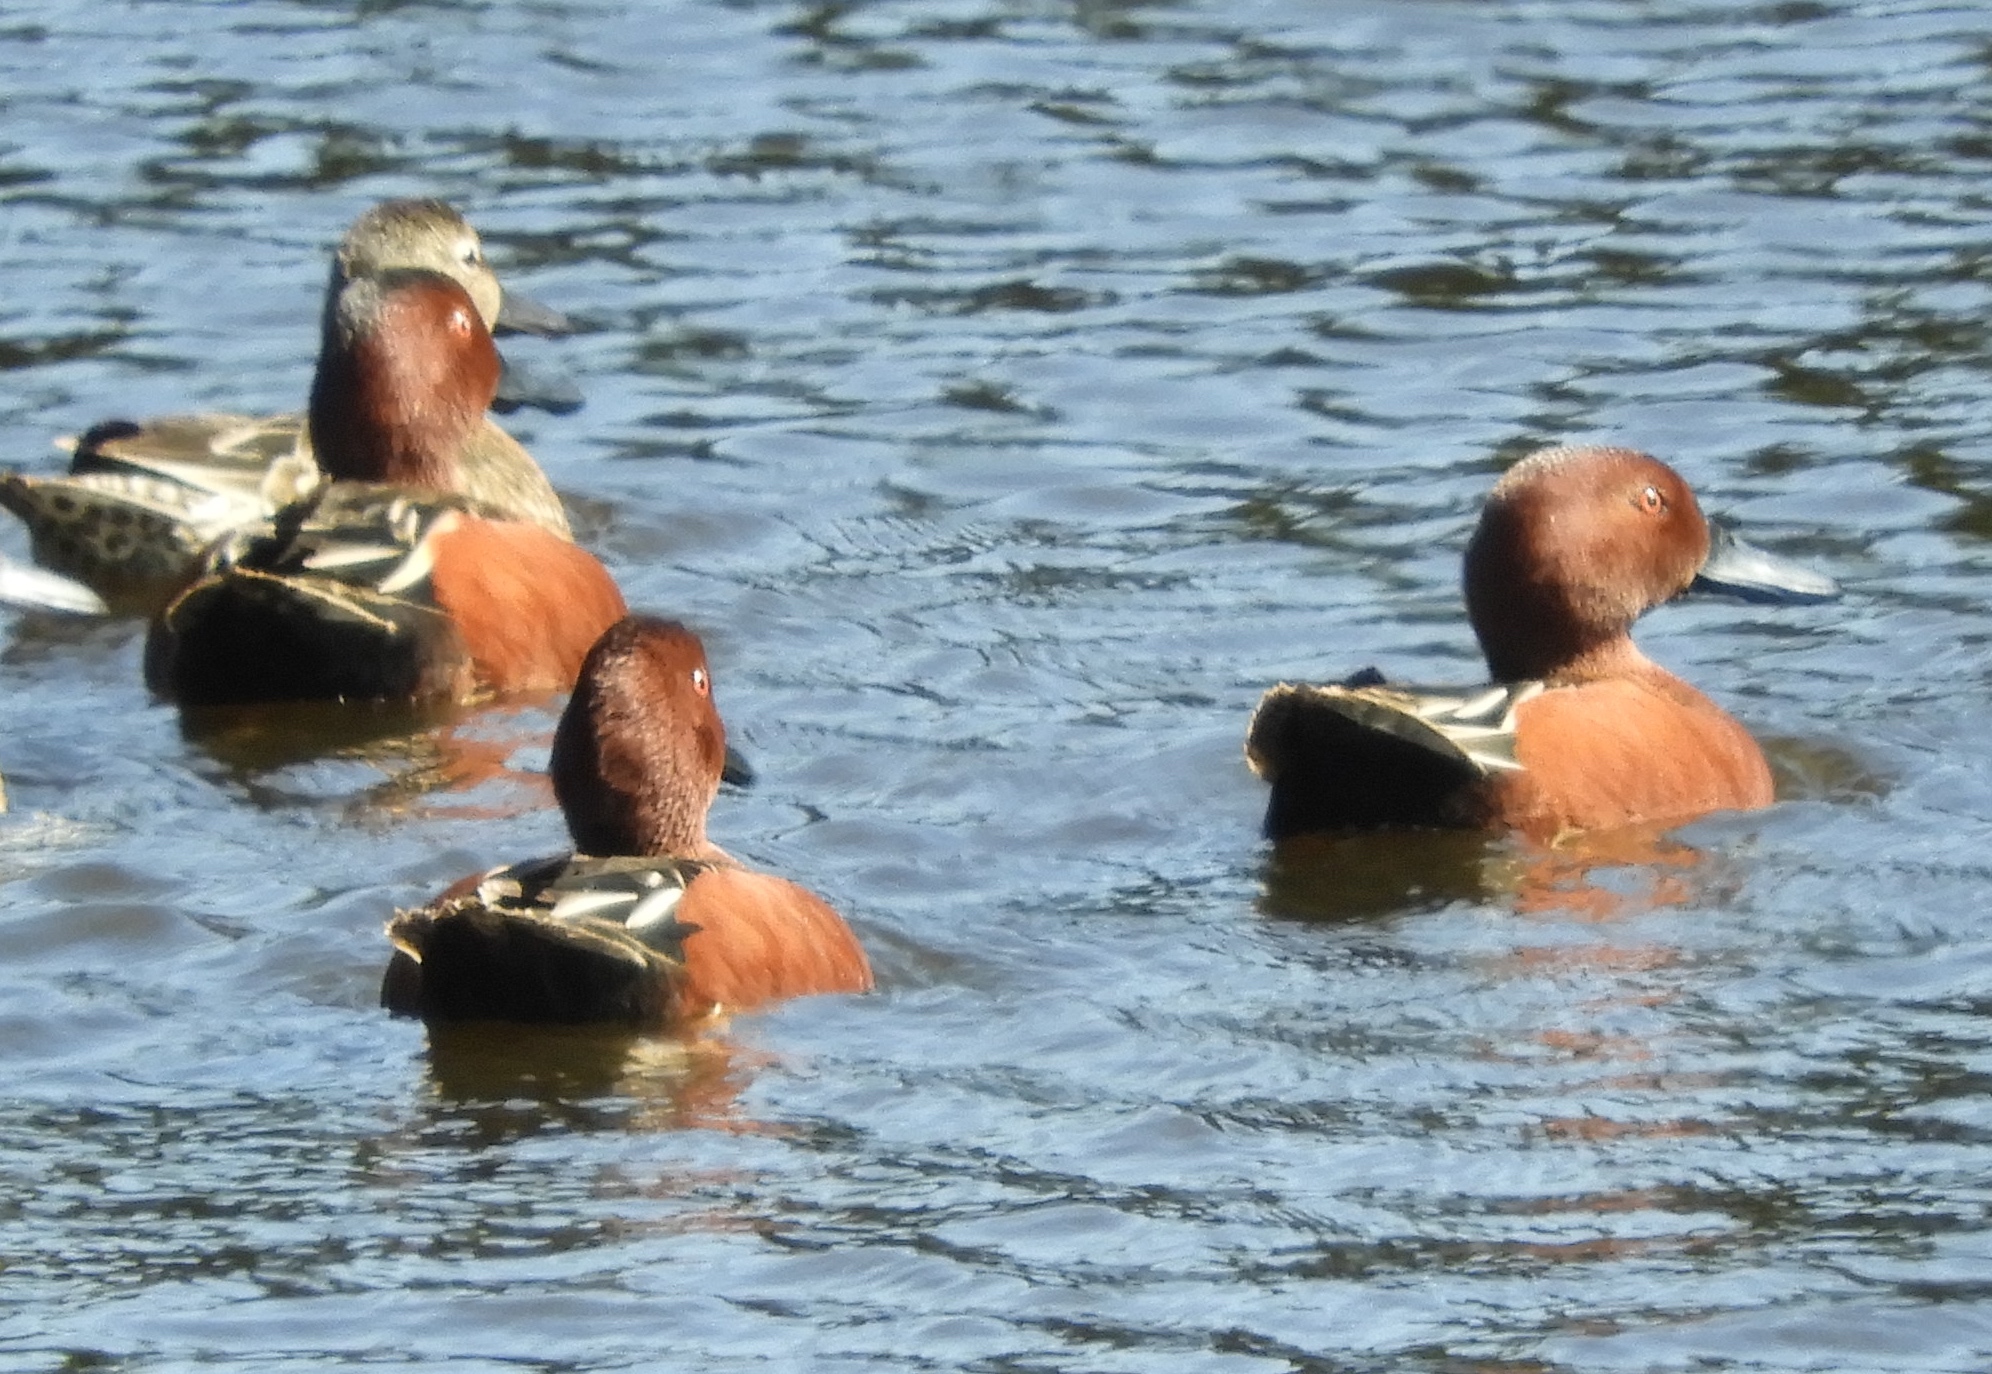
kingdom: Animalia
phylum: Chordata
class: Aves
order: Anseriformes
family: Anatidae
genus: Spatula
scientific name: Spatula cyanoptera
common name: Cinnamon teal
